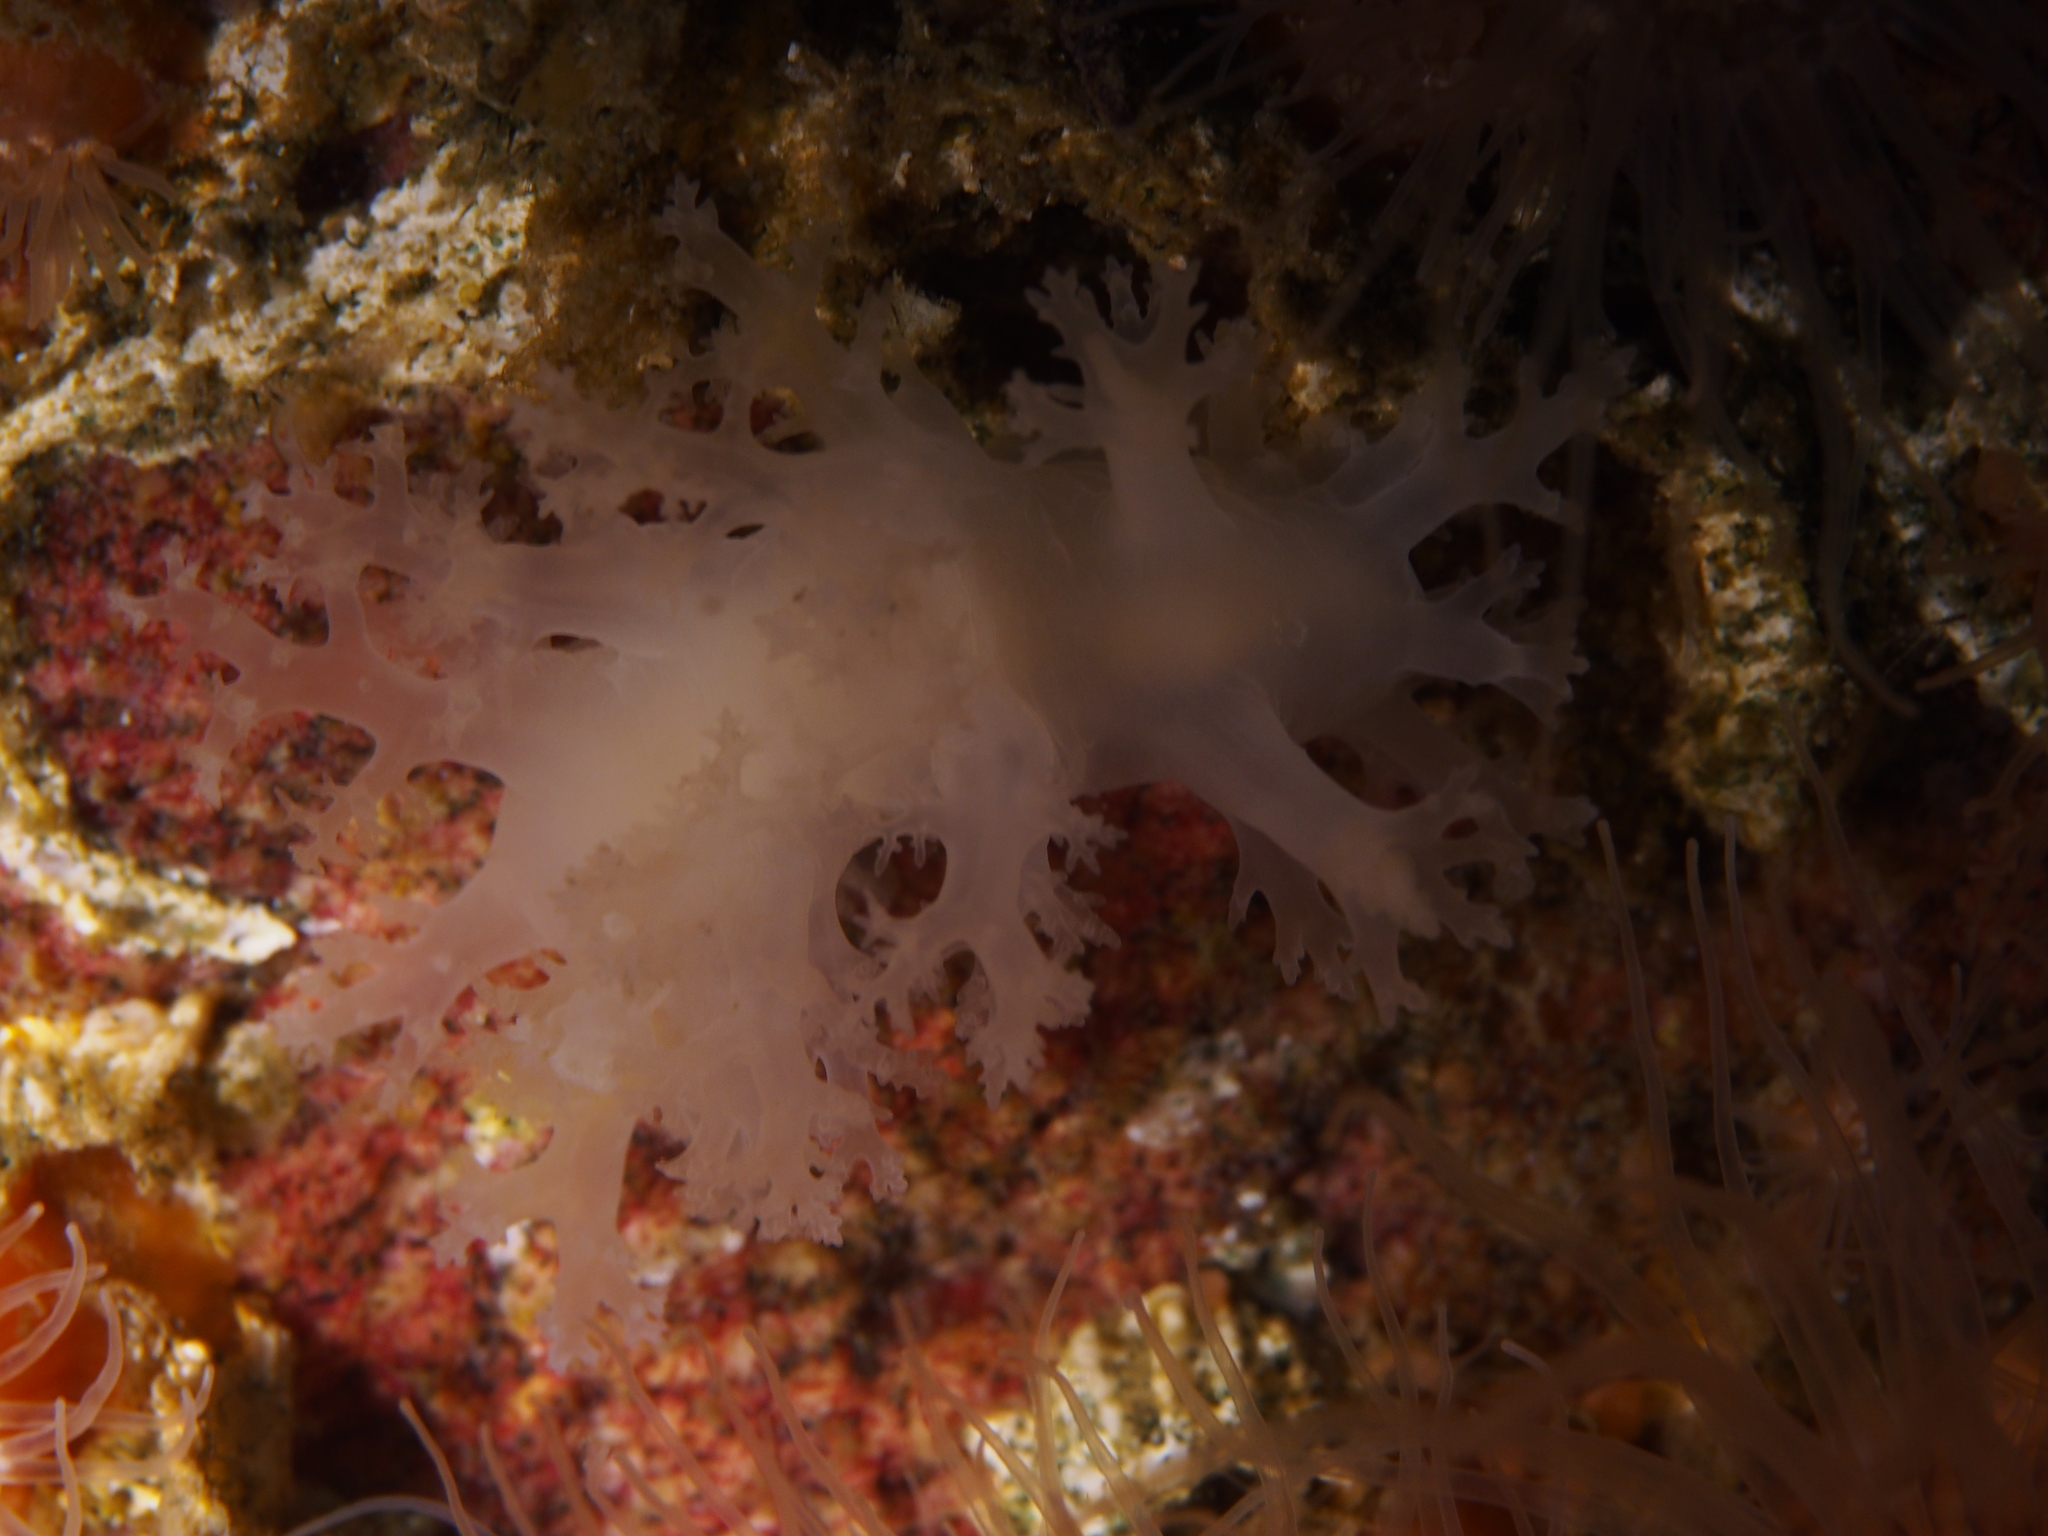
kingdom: Animalia
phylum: Mollusca
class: Gastropoda
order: Nudibranchia
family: Dendronotidae
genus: Dendronotus
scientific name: Dendronotus lacteus
